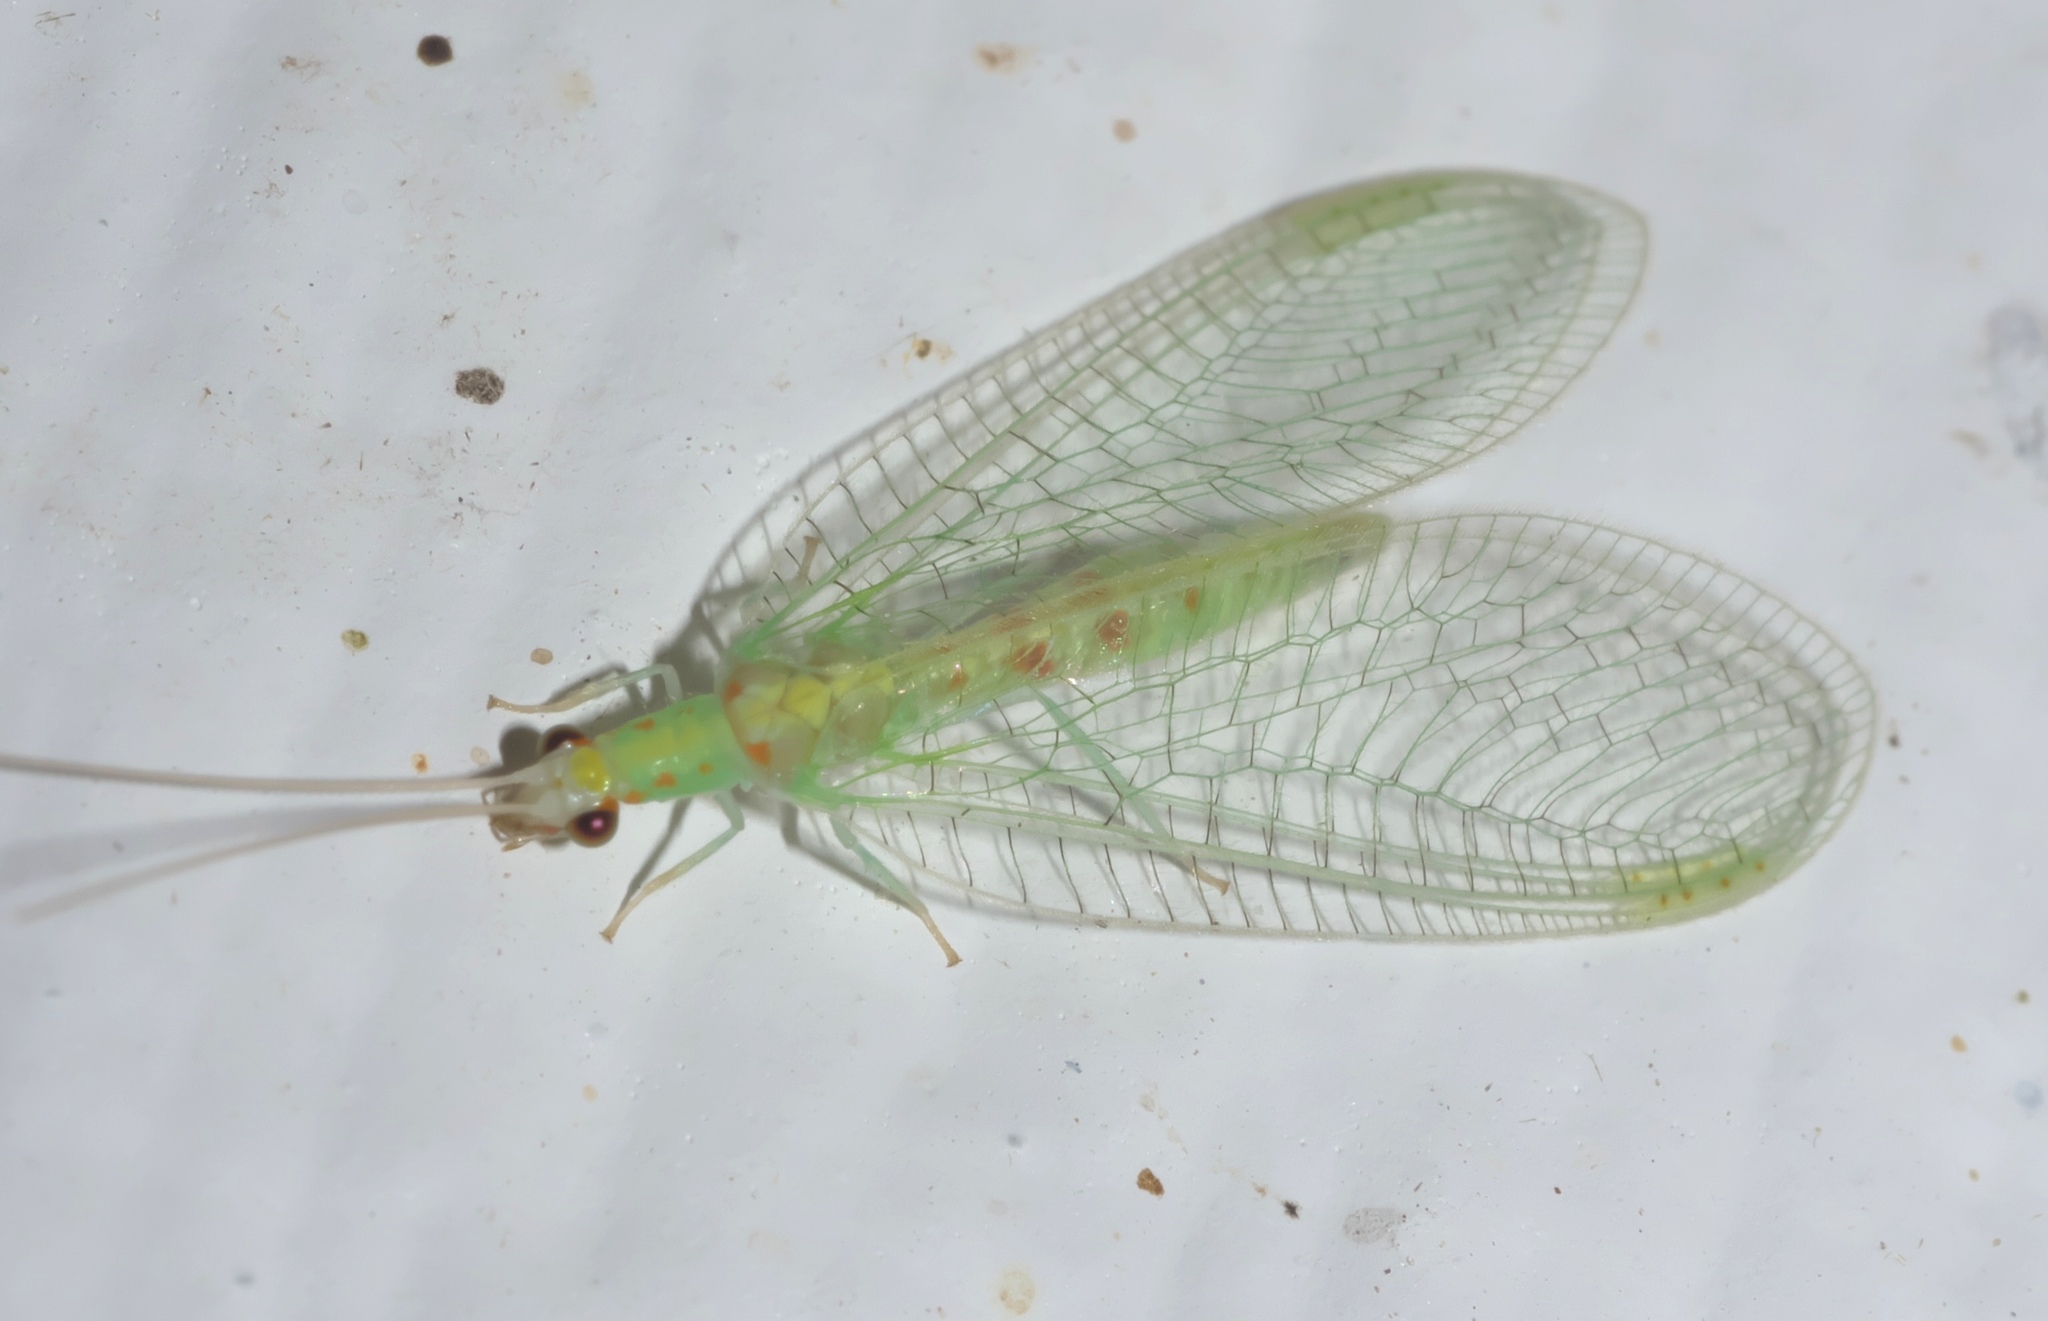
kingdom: Animalia
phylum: Arthropoda
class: Insecta
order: Neuroptera
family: Chrysopidae
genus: Chrysopa
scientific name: Chrysopa quadripunctata
